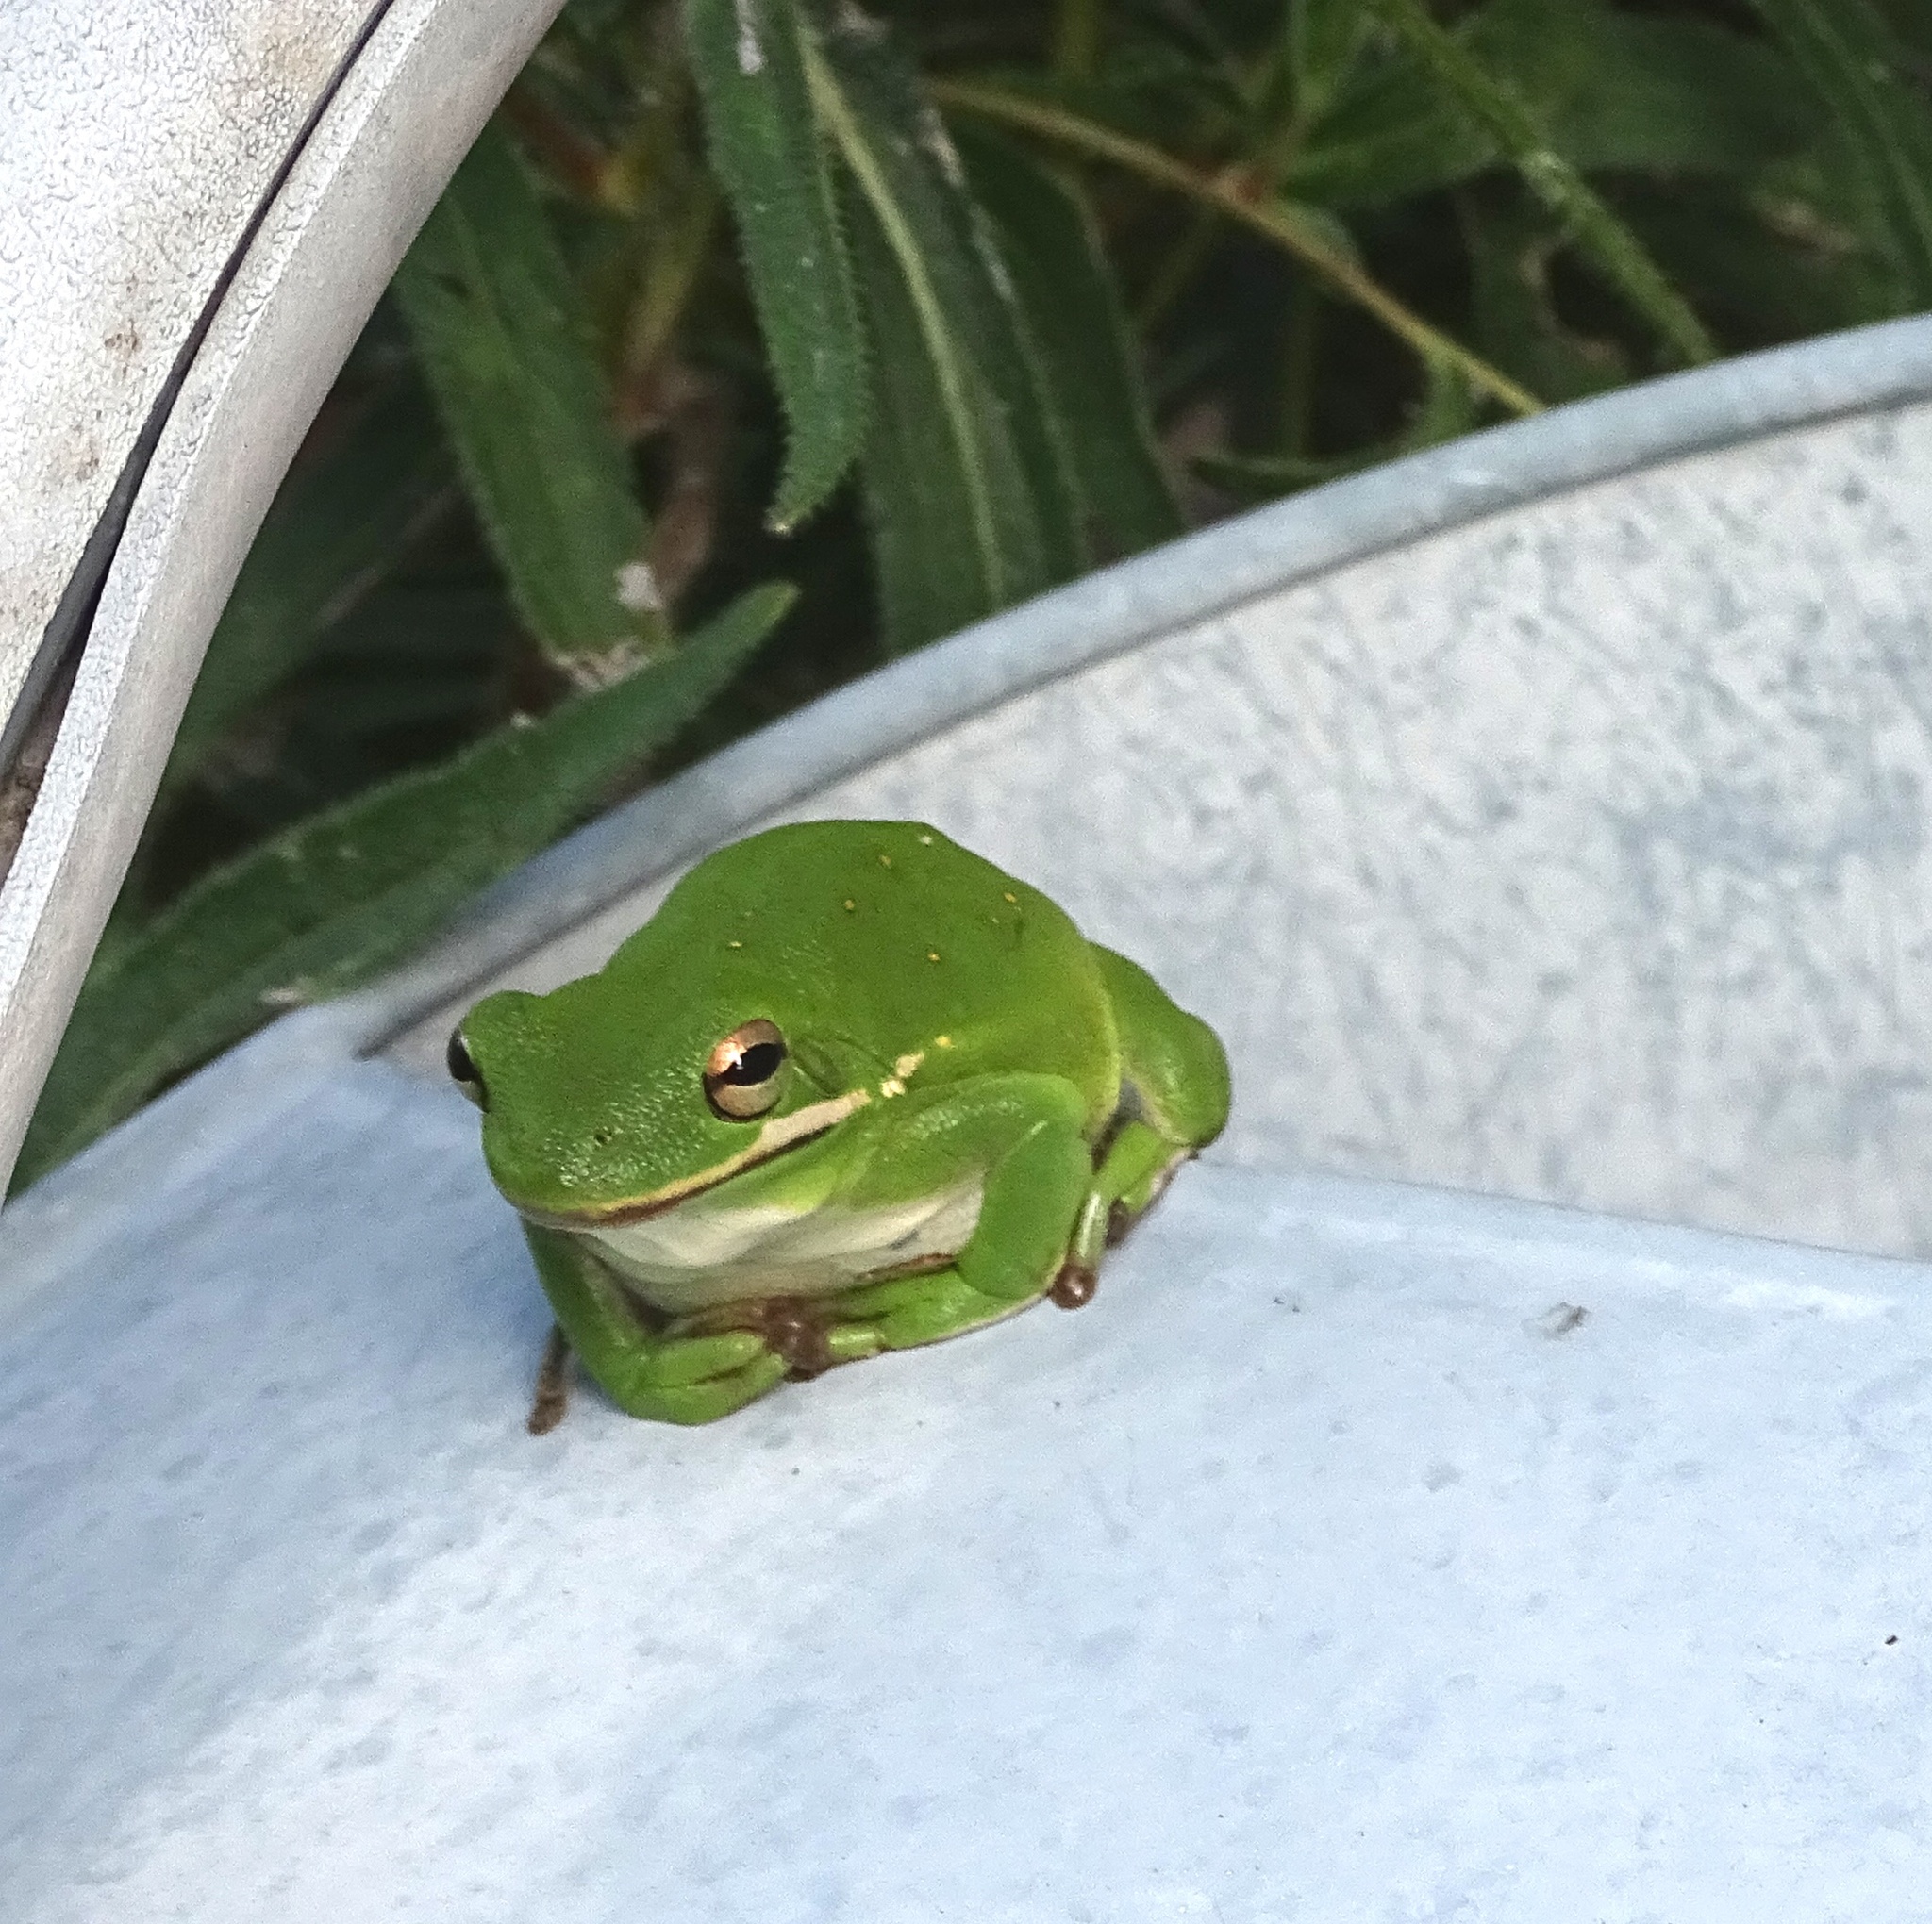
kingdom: Animalia
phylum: Chordata
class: Amphibia
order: Anura
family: Hylidae
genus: Dryophytes
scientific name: Dryophytes cinereus
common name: Green treefrog
